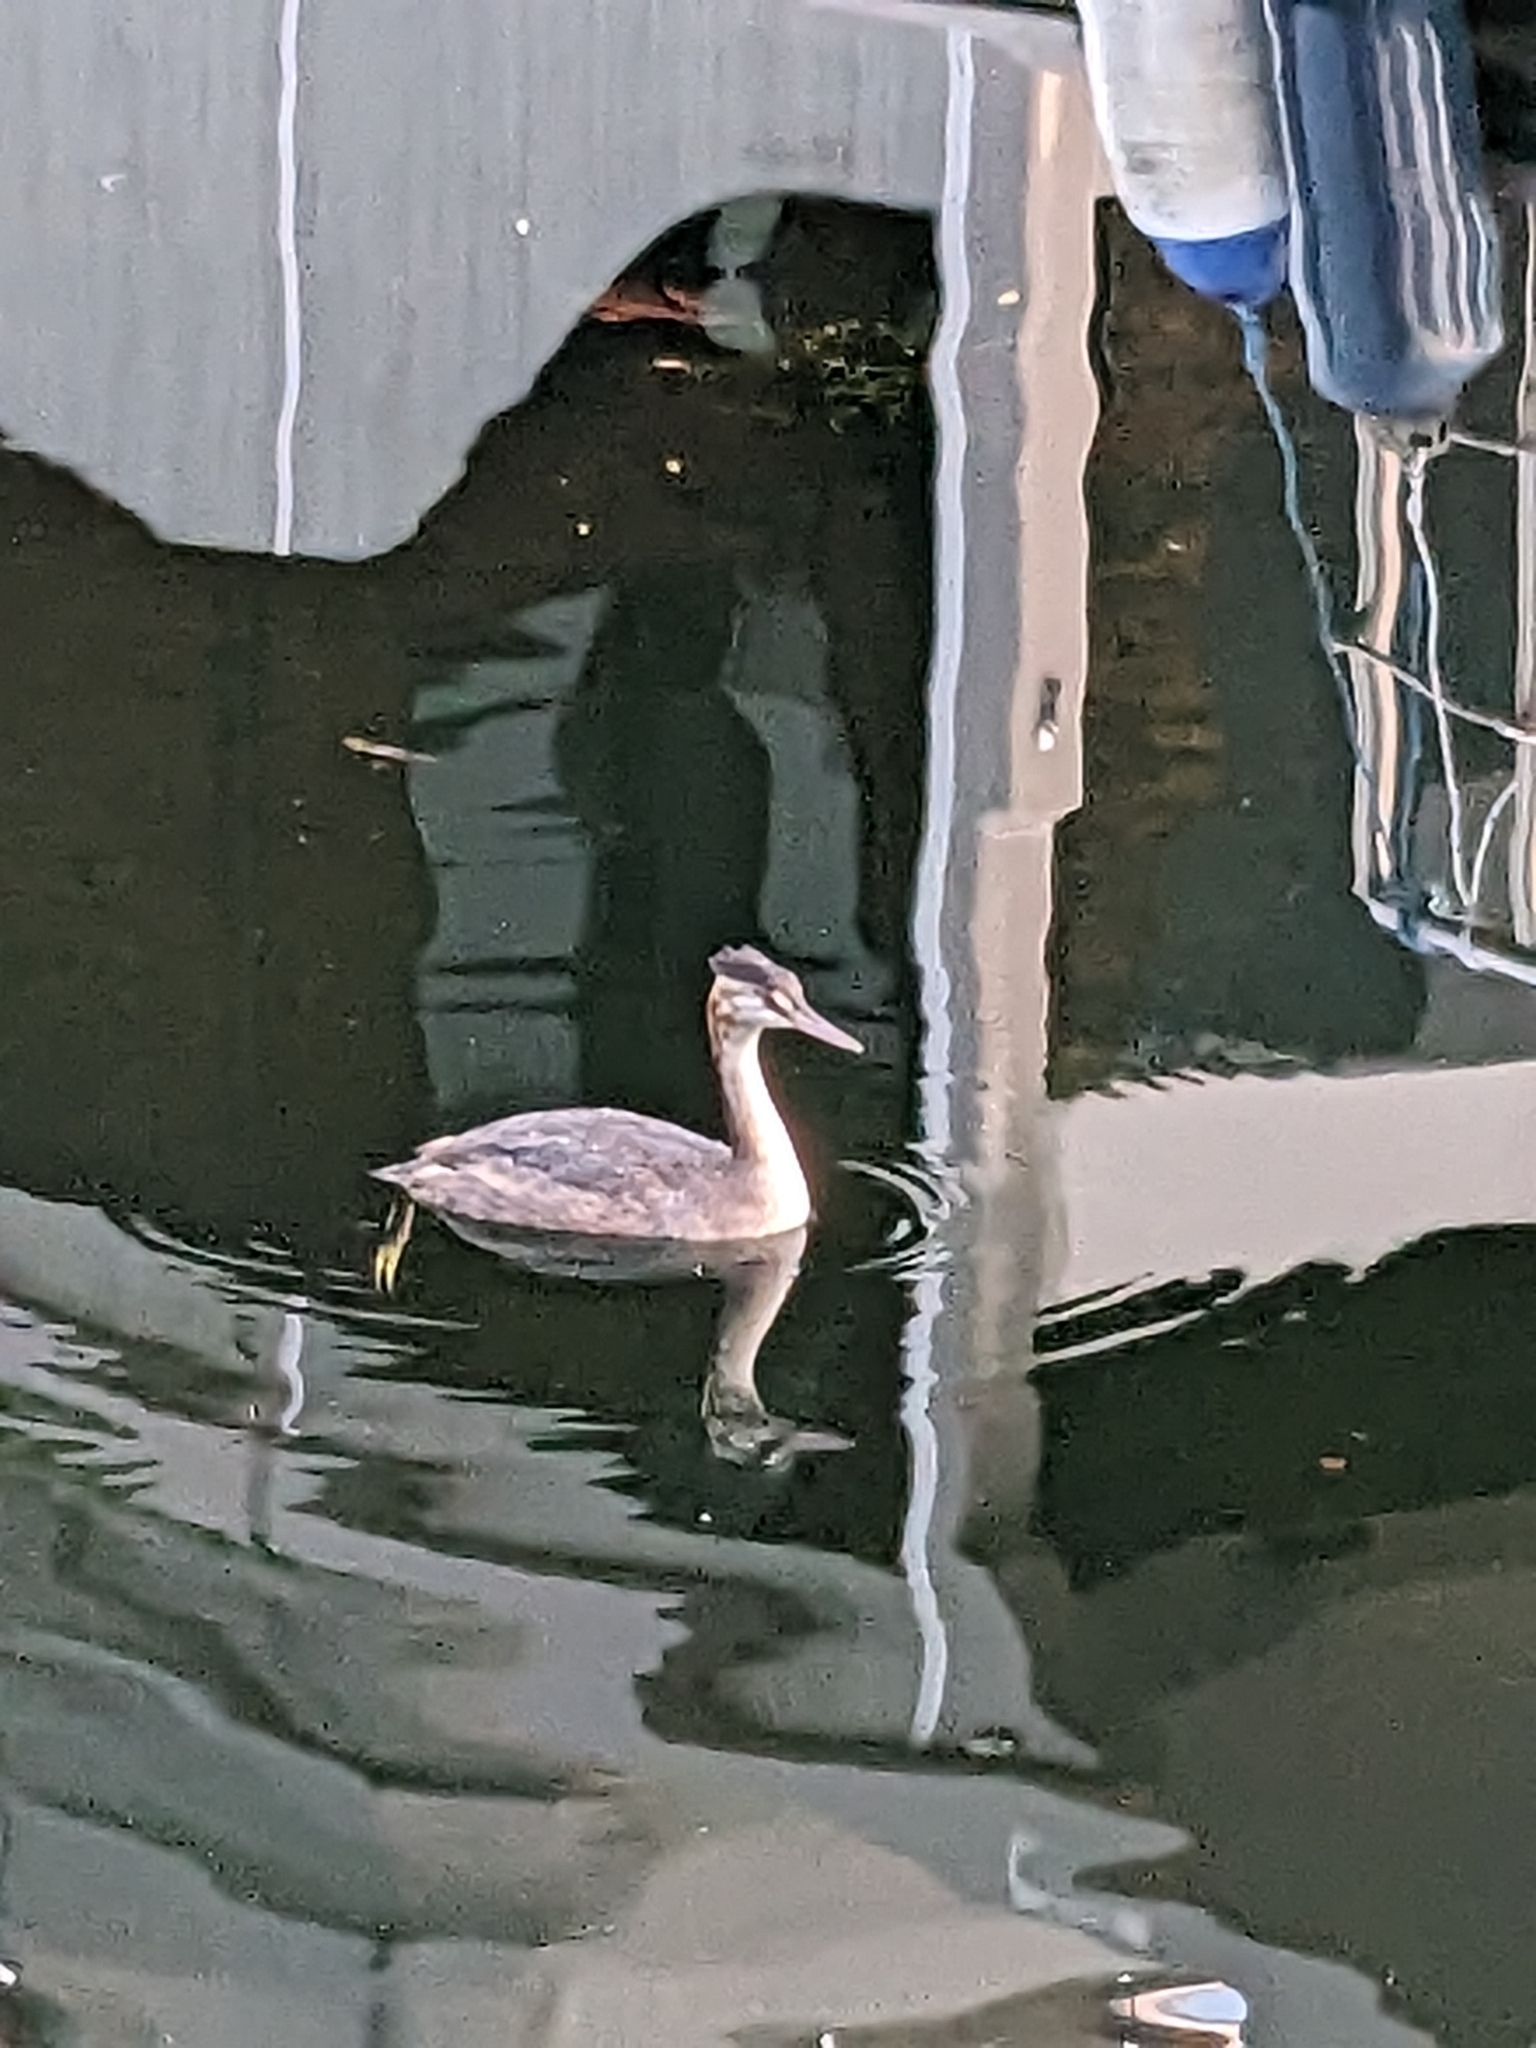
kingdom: Animalia
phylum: Chordata
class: Aves
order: Podicipediformes
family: Podicipedidae
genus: Podiceps
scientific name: Podiceps cristatus
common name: Great crested grebe
